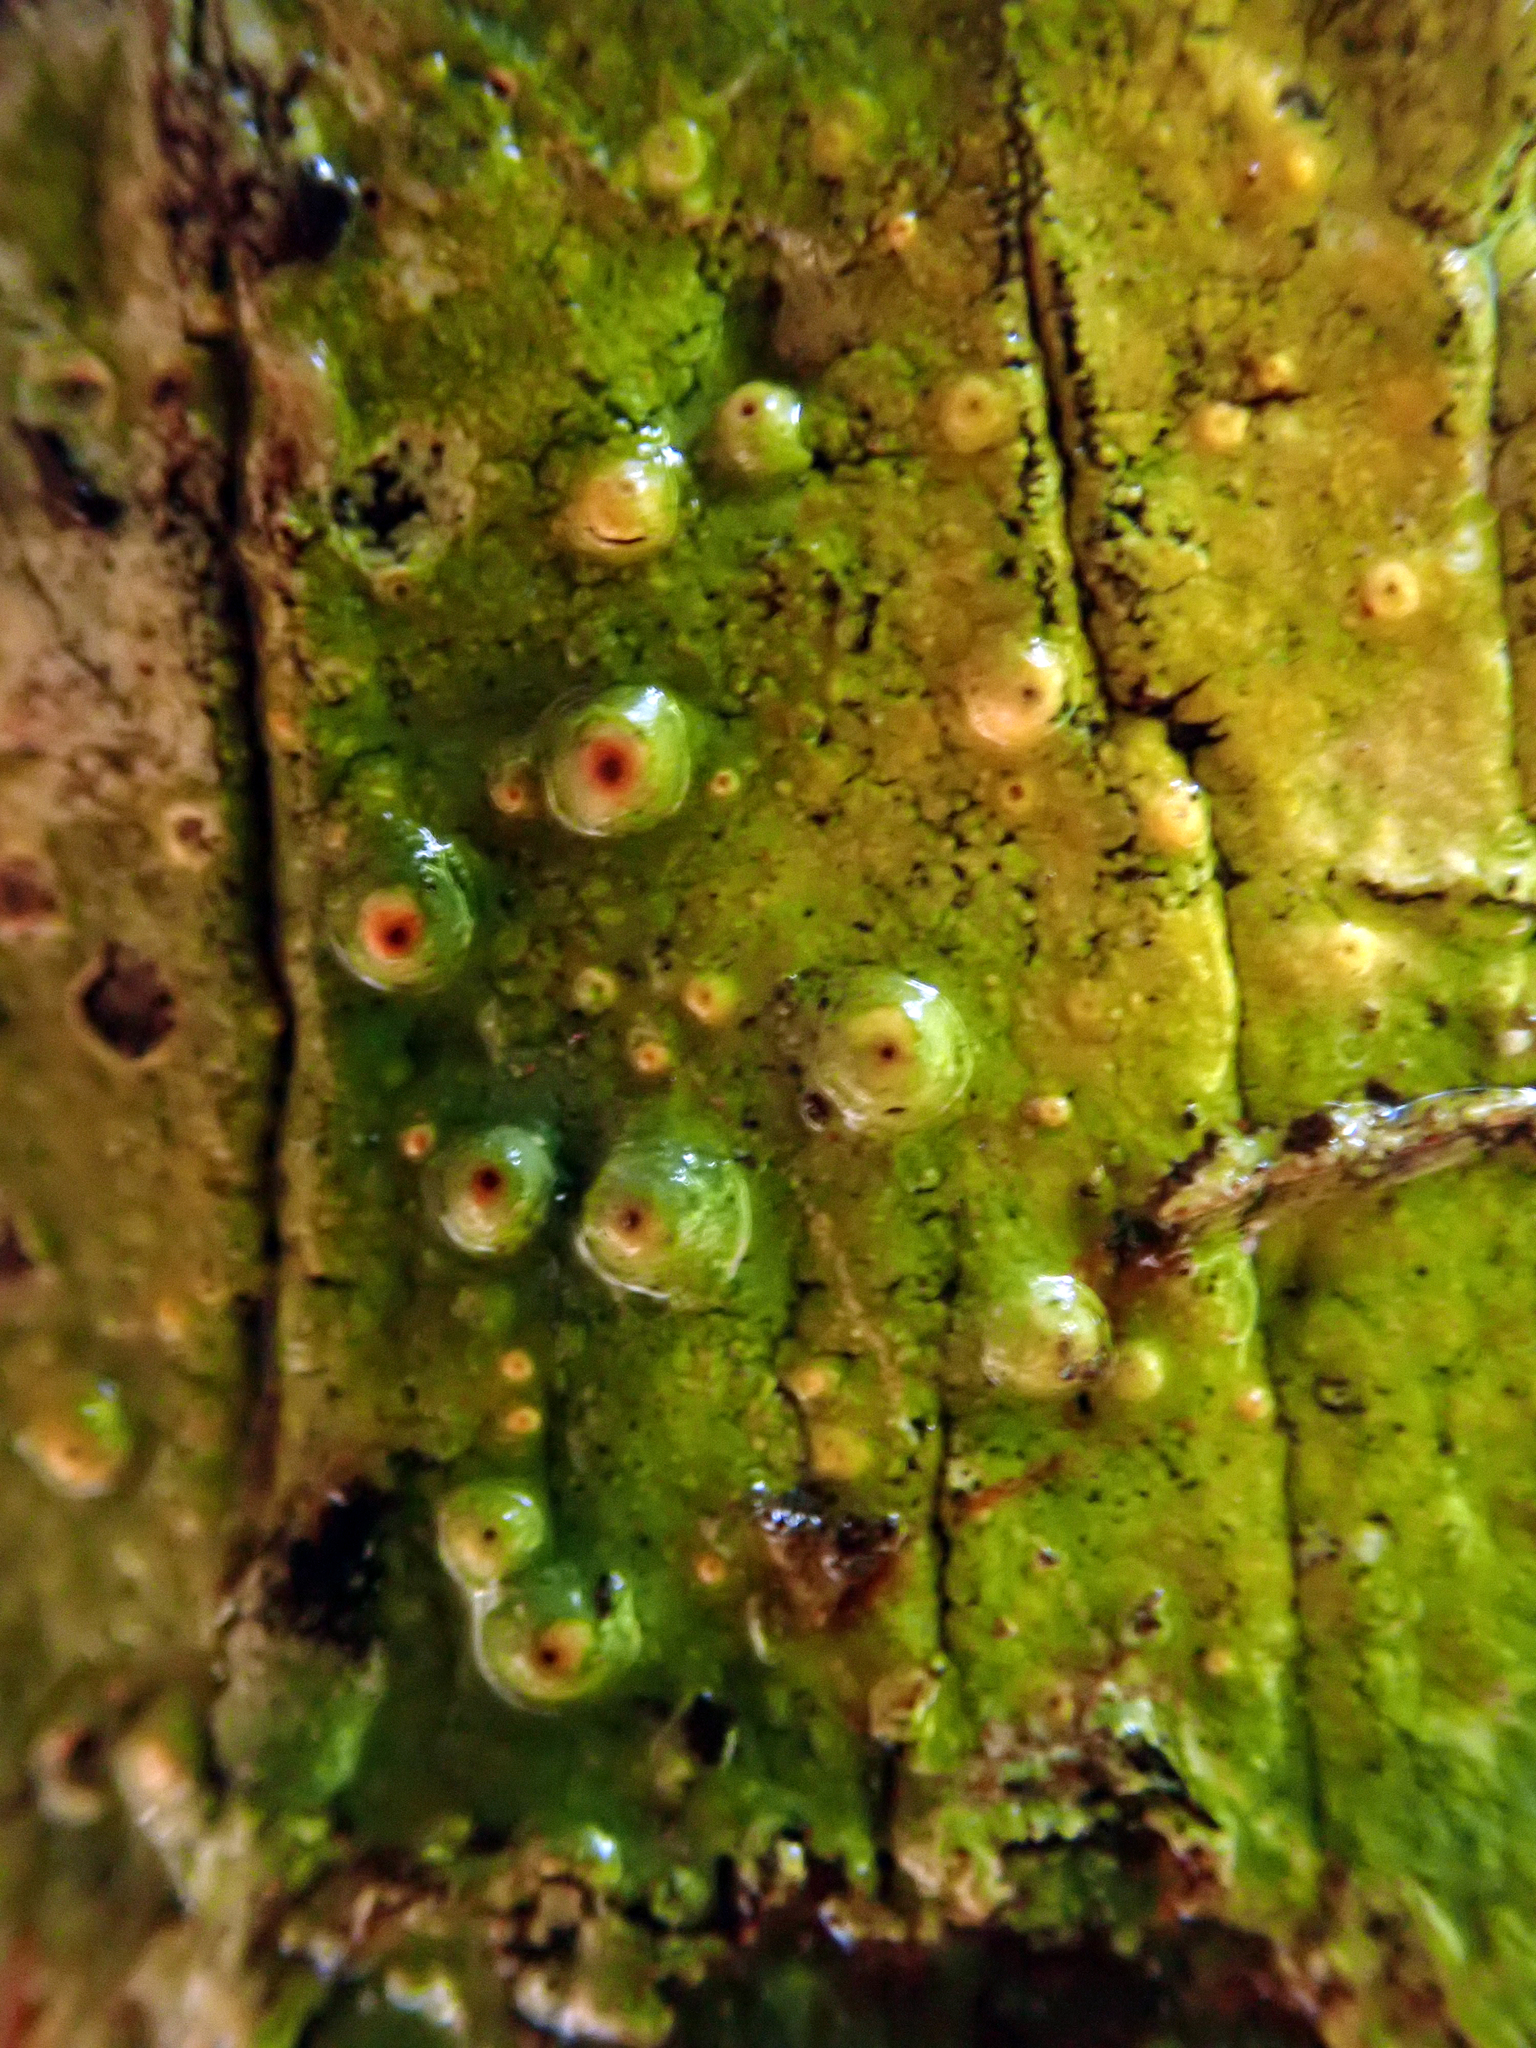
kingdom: Fungi
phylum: Ascomycota
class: Lecanoromycetes
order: Pertusariales
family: Pertusariaceae
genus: Porina
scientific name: Porina exocha
